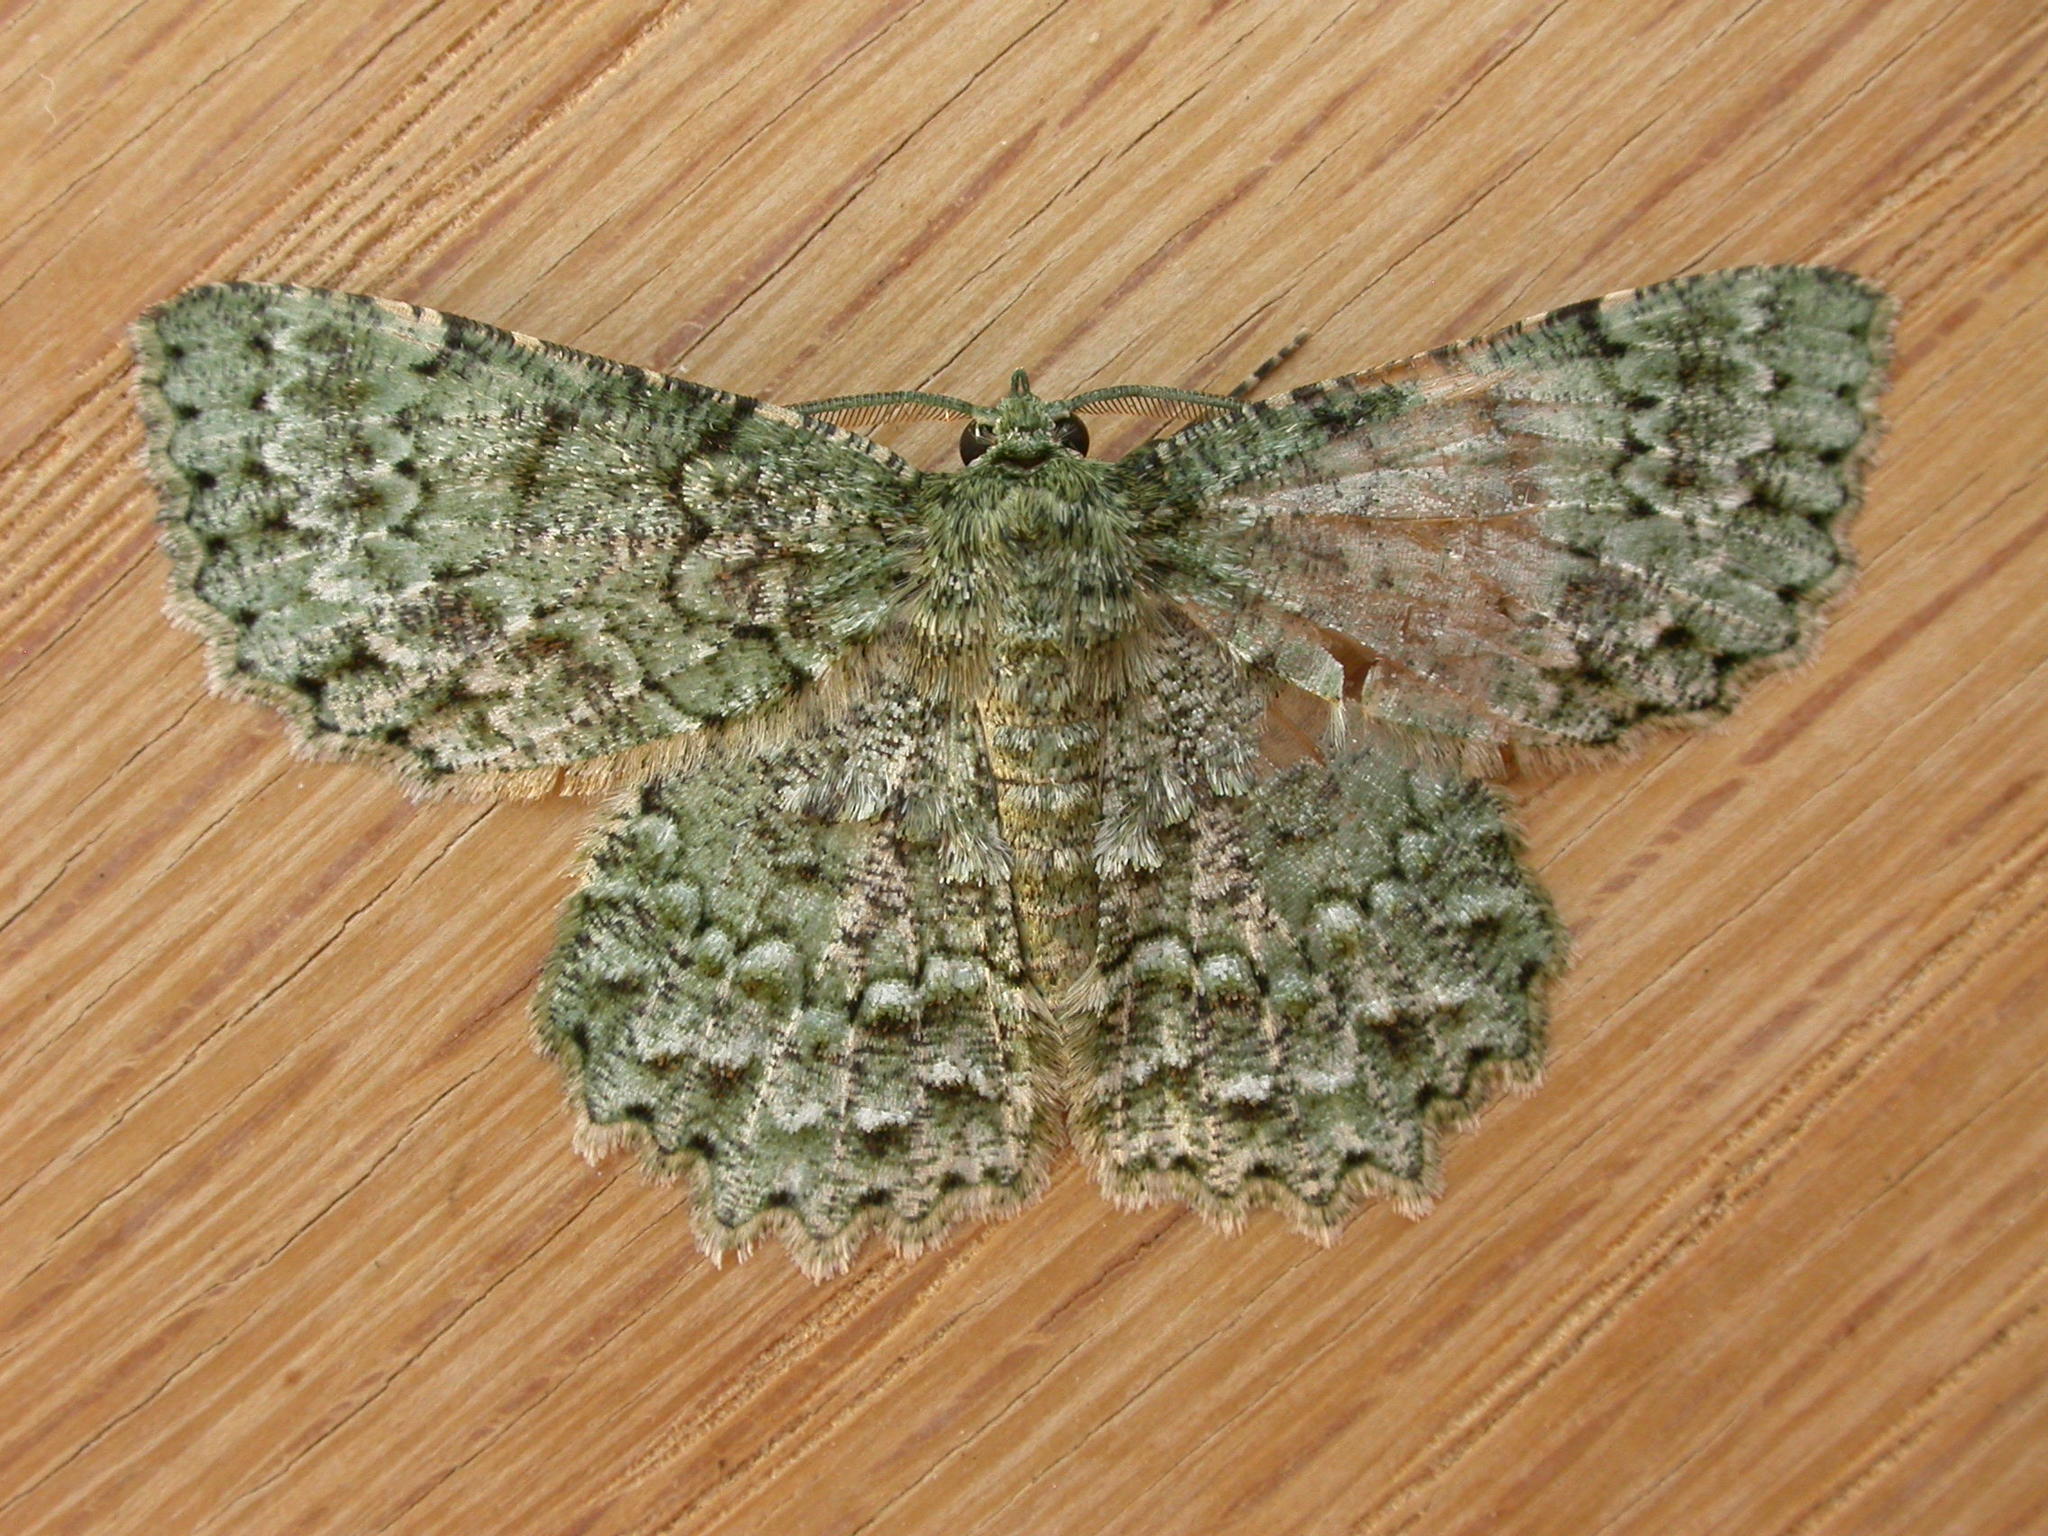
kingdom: Animalia
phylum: Arthropoda
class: Insecta
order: Lepidoptera
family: Geometridae
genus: Hypodoxa
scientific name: Hypodoxa muscosaria
